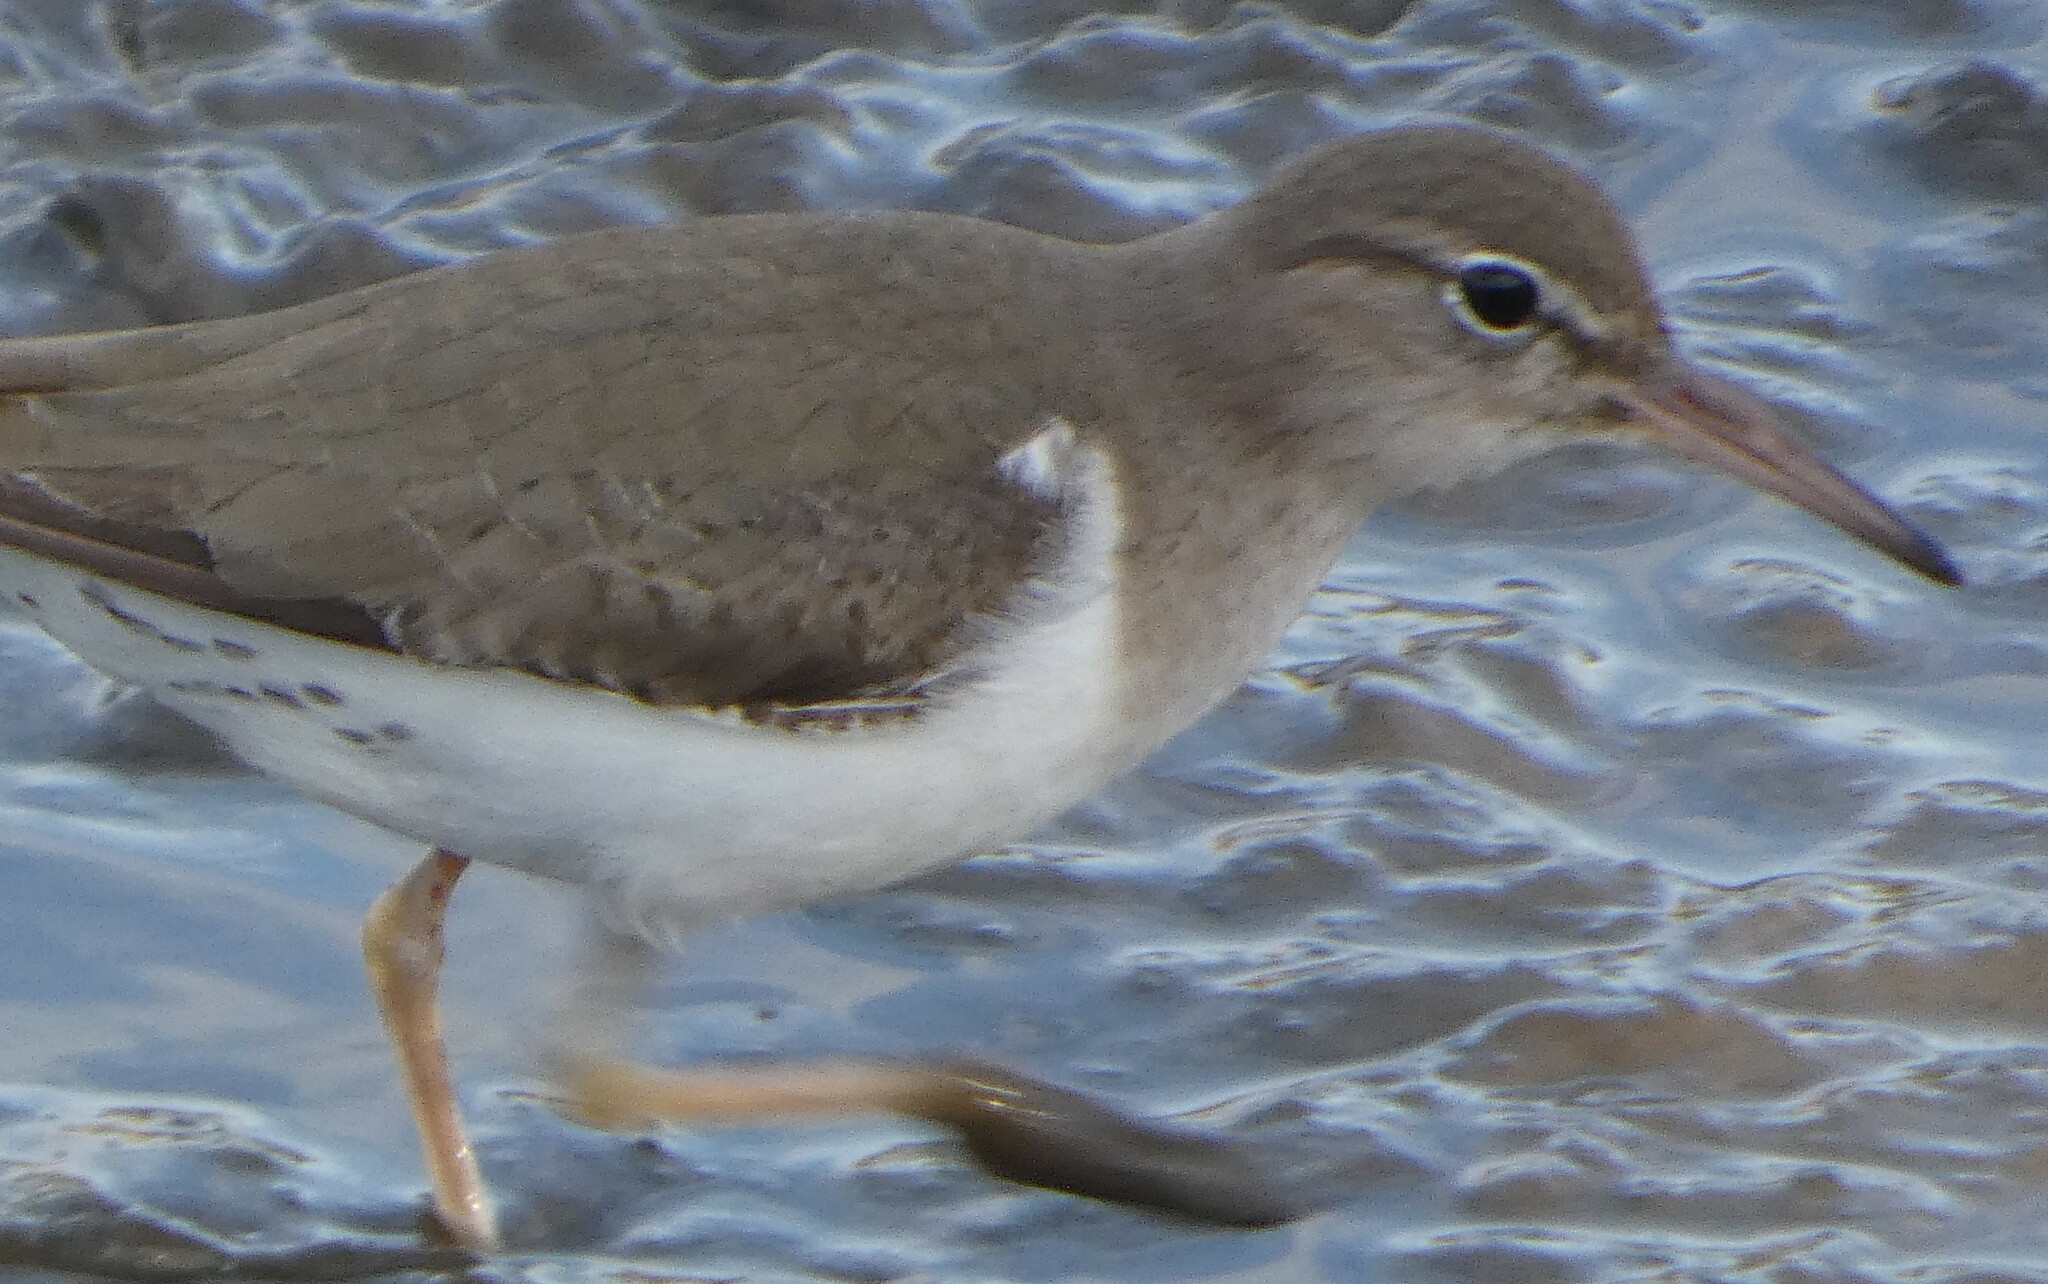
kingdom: Animalia
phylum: Chordata
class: Aves
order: Charadriiformes
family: Scolopacidae
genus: Actitis
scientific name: Actitis macularius
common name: Spotted sandpiper
